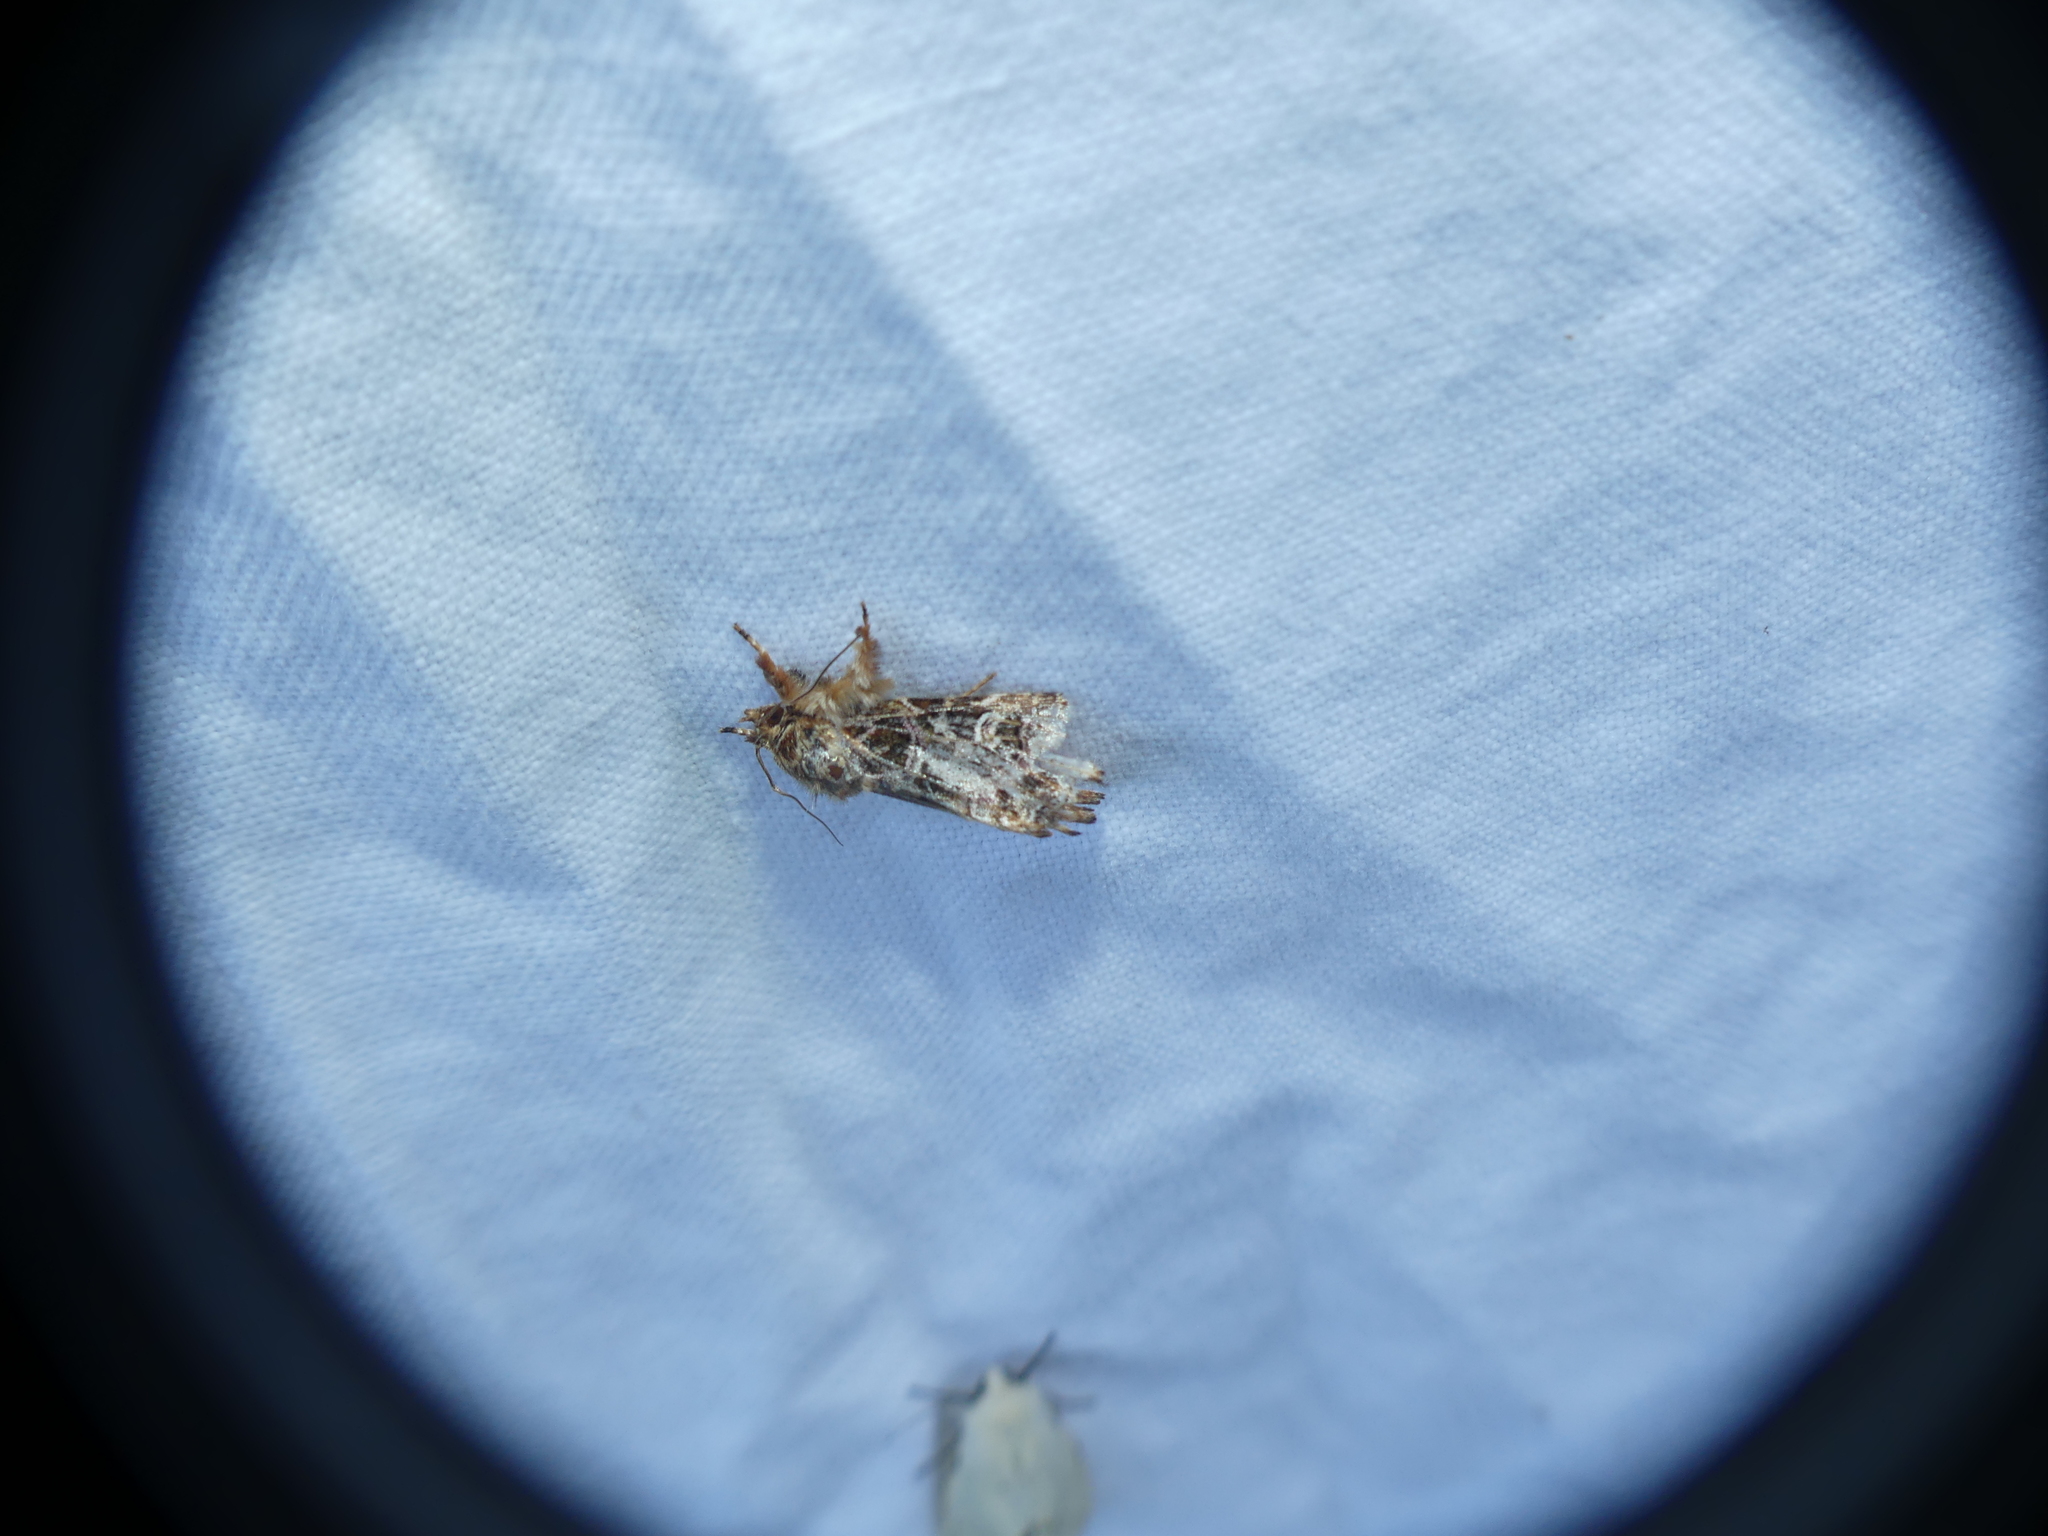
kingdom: Animalia
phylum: Arthropoda
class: Insecta
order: Lepidoptera
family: Noctuidae
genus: Callopistria
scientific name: Callopistria juventina
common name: Latin
